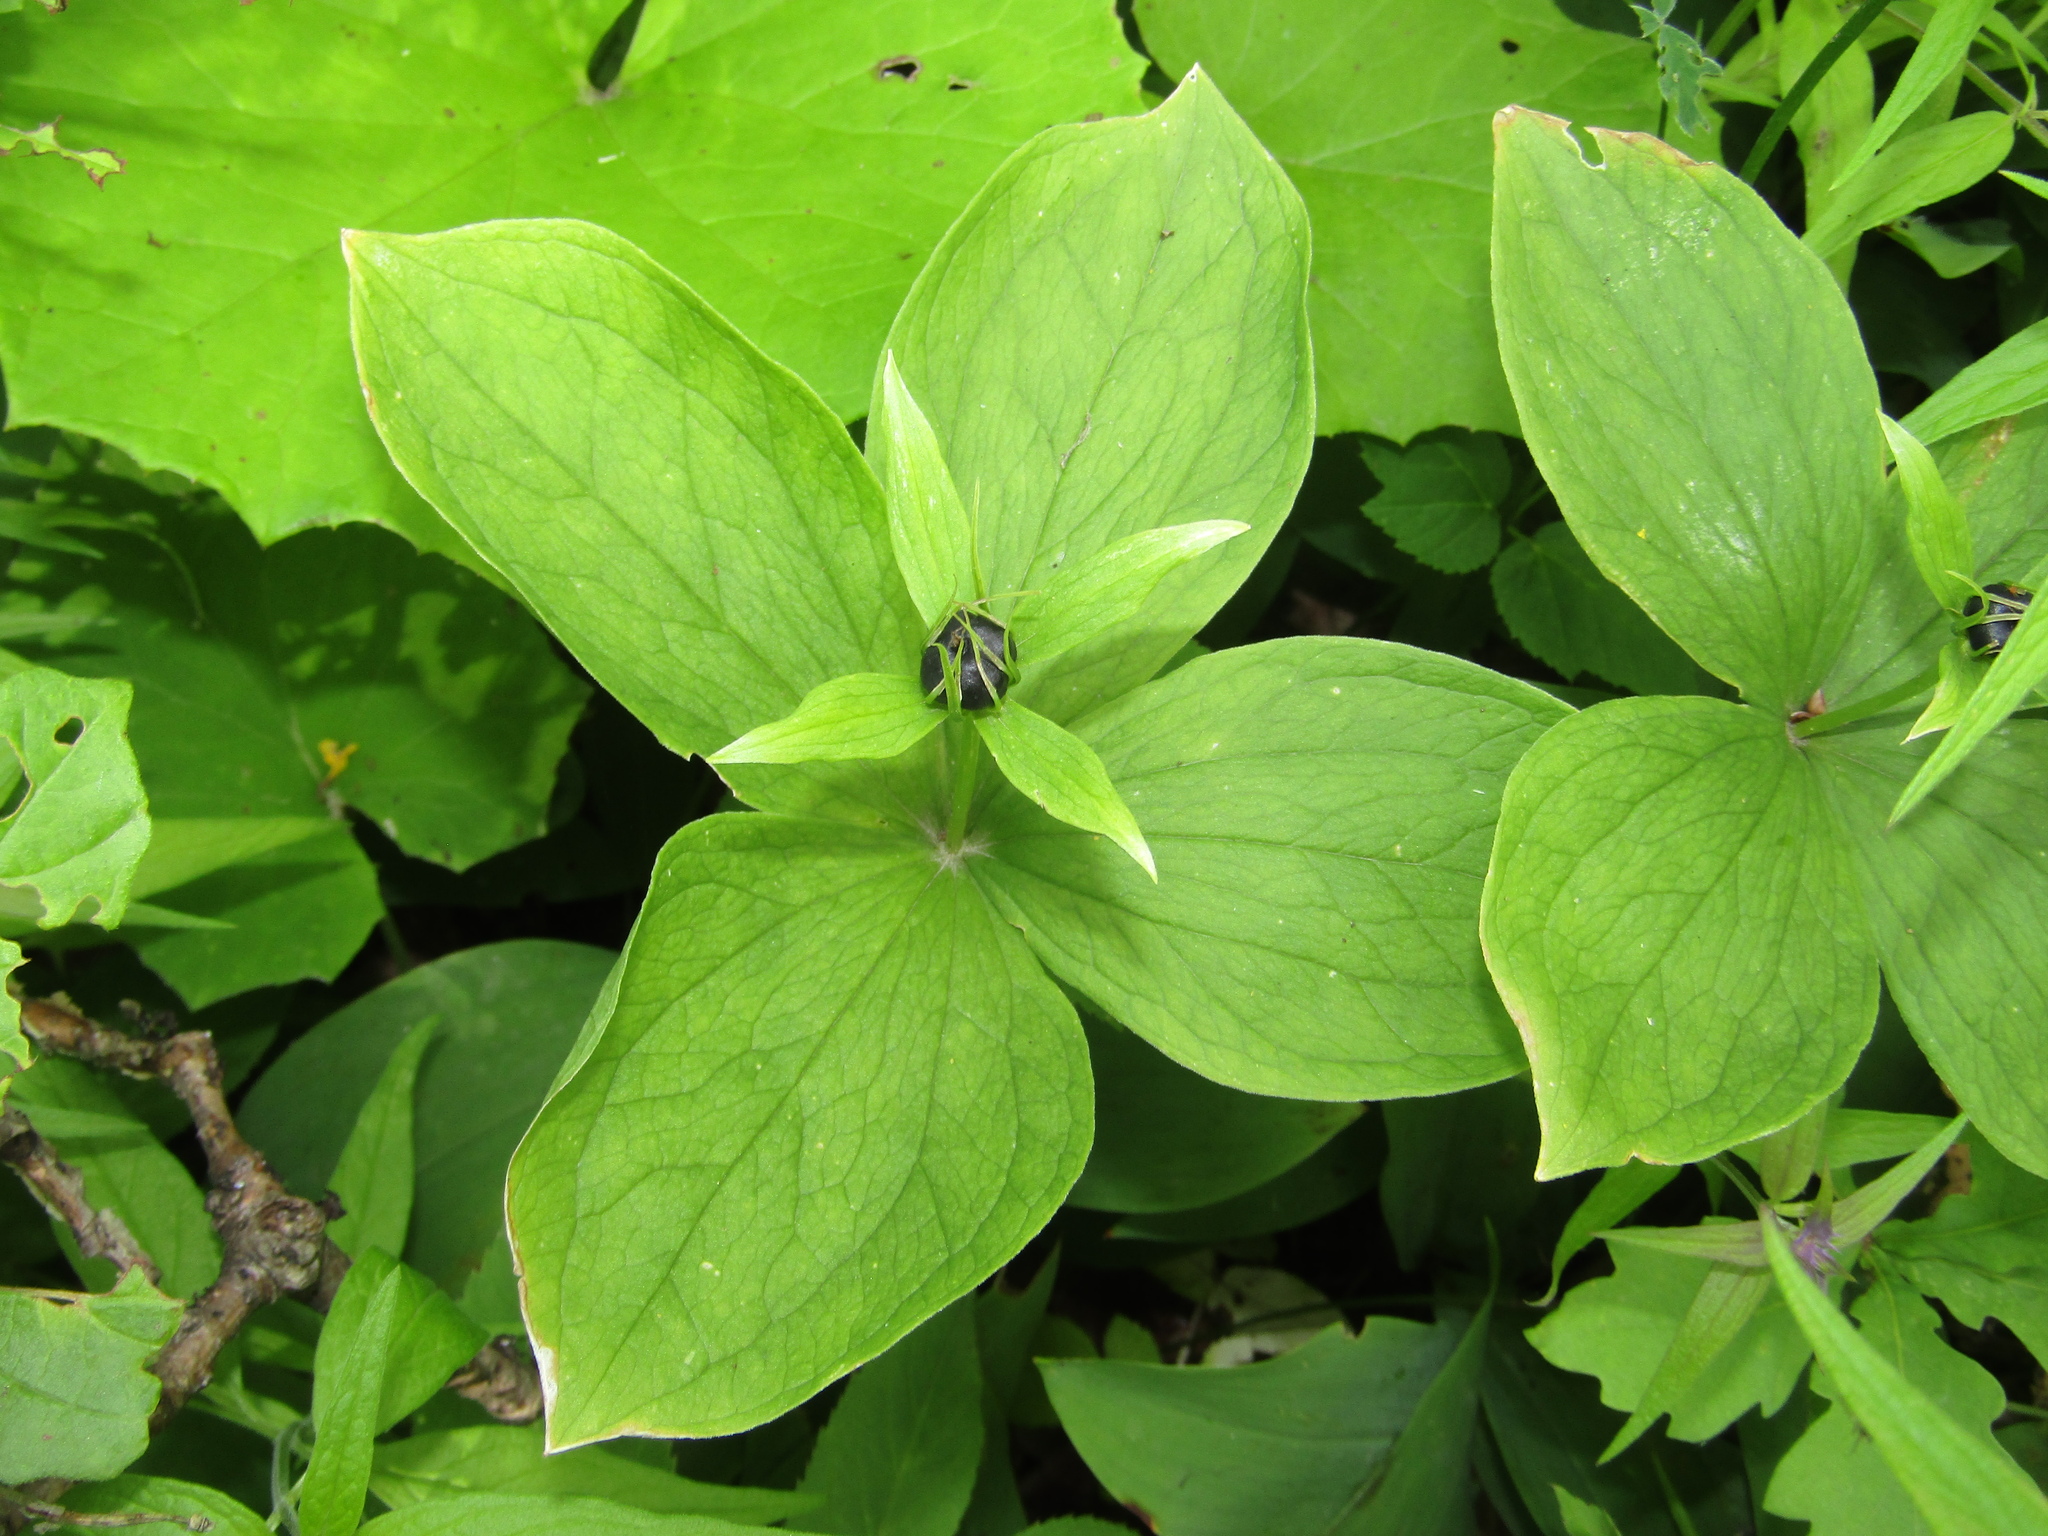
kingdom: Plantae
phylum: Tracheophyta
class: Liliopsida
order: Liliales
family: Melanthiaceae
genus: Paris
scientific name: Paris quadrifolia
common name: Herb-paris
